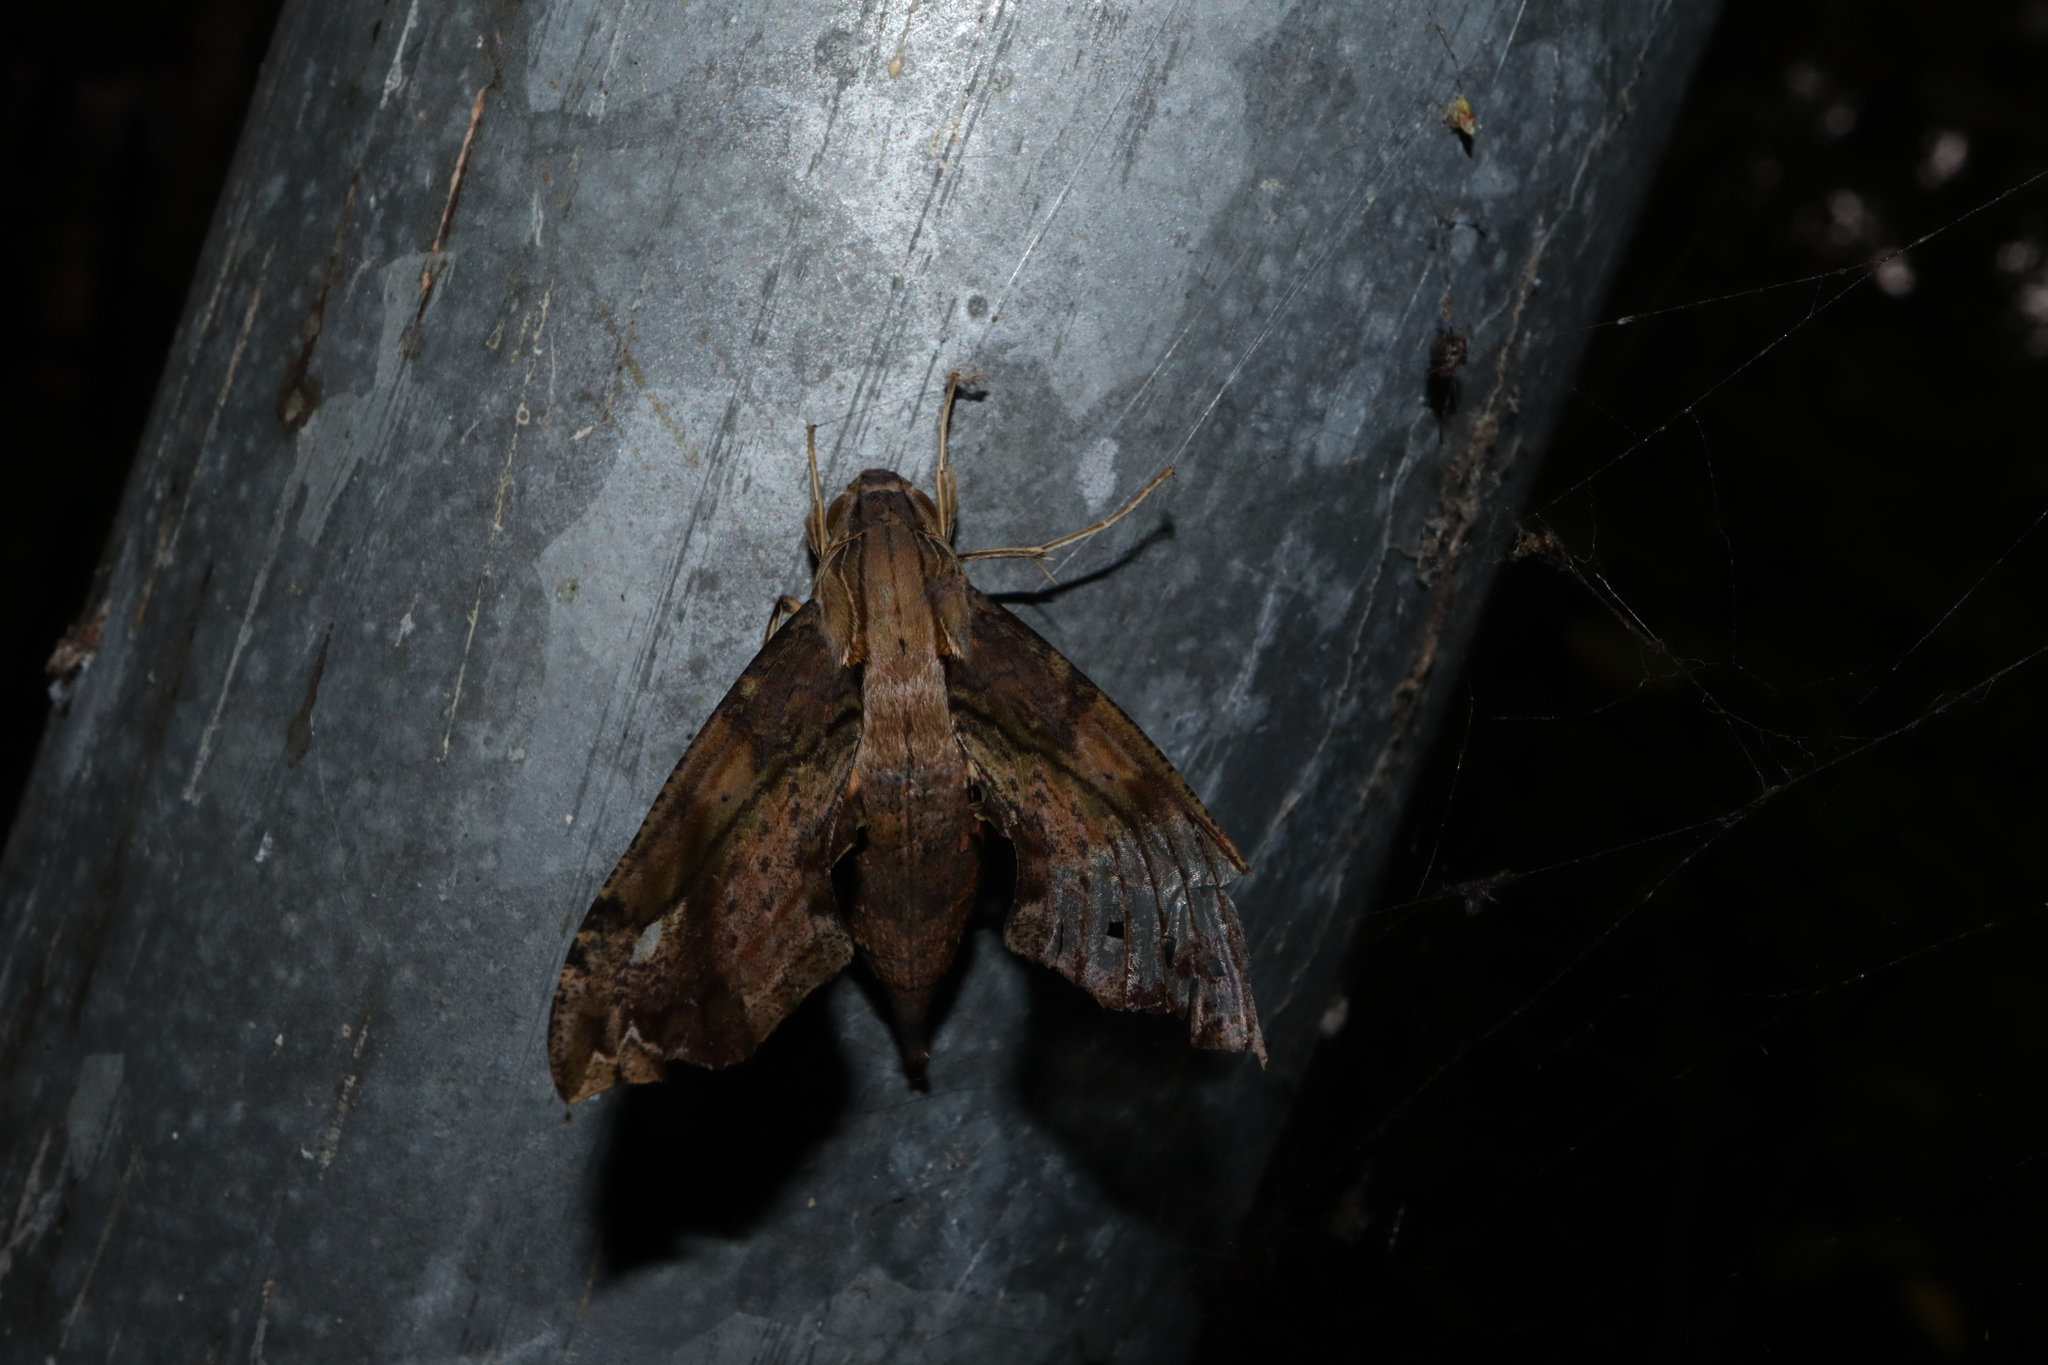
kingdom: Animalia
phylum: Arthropoda
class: Insecta
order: Lepidoptera
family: Sphingidae
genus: Eupanacra
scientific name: Eupanacra splendens
